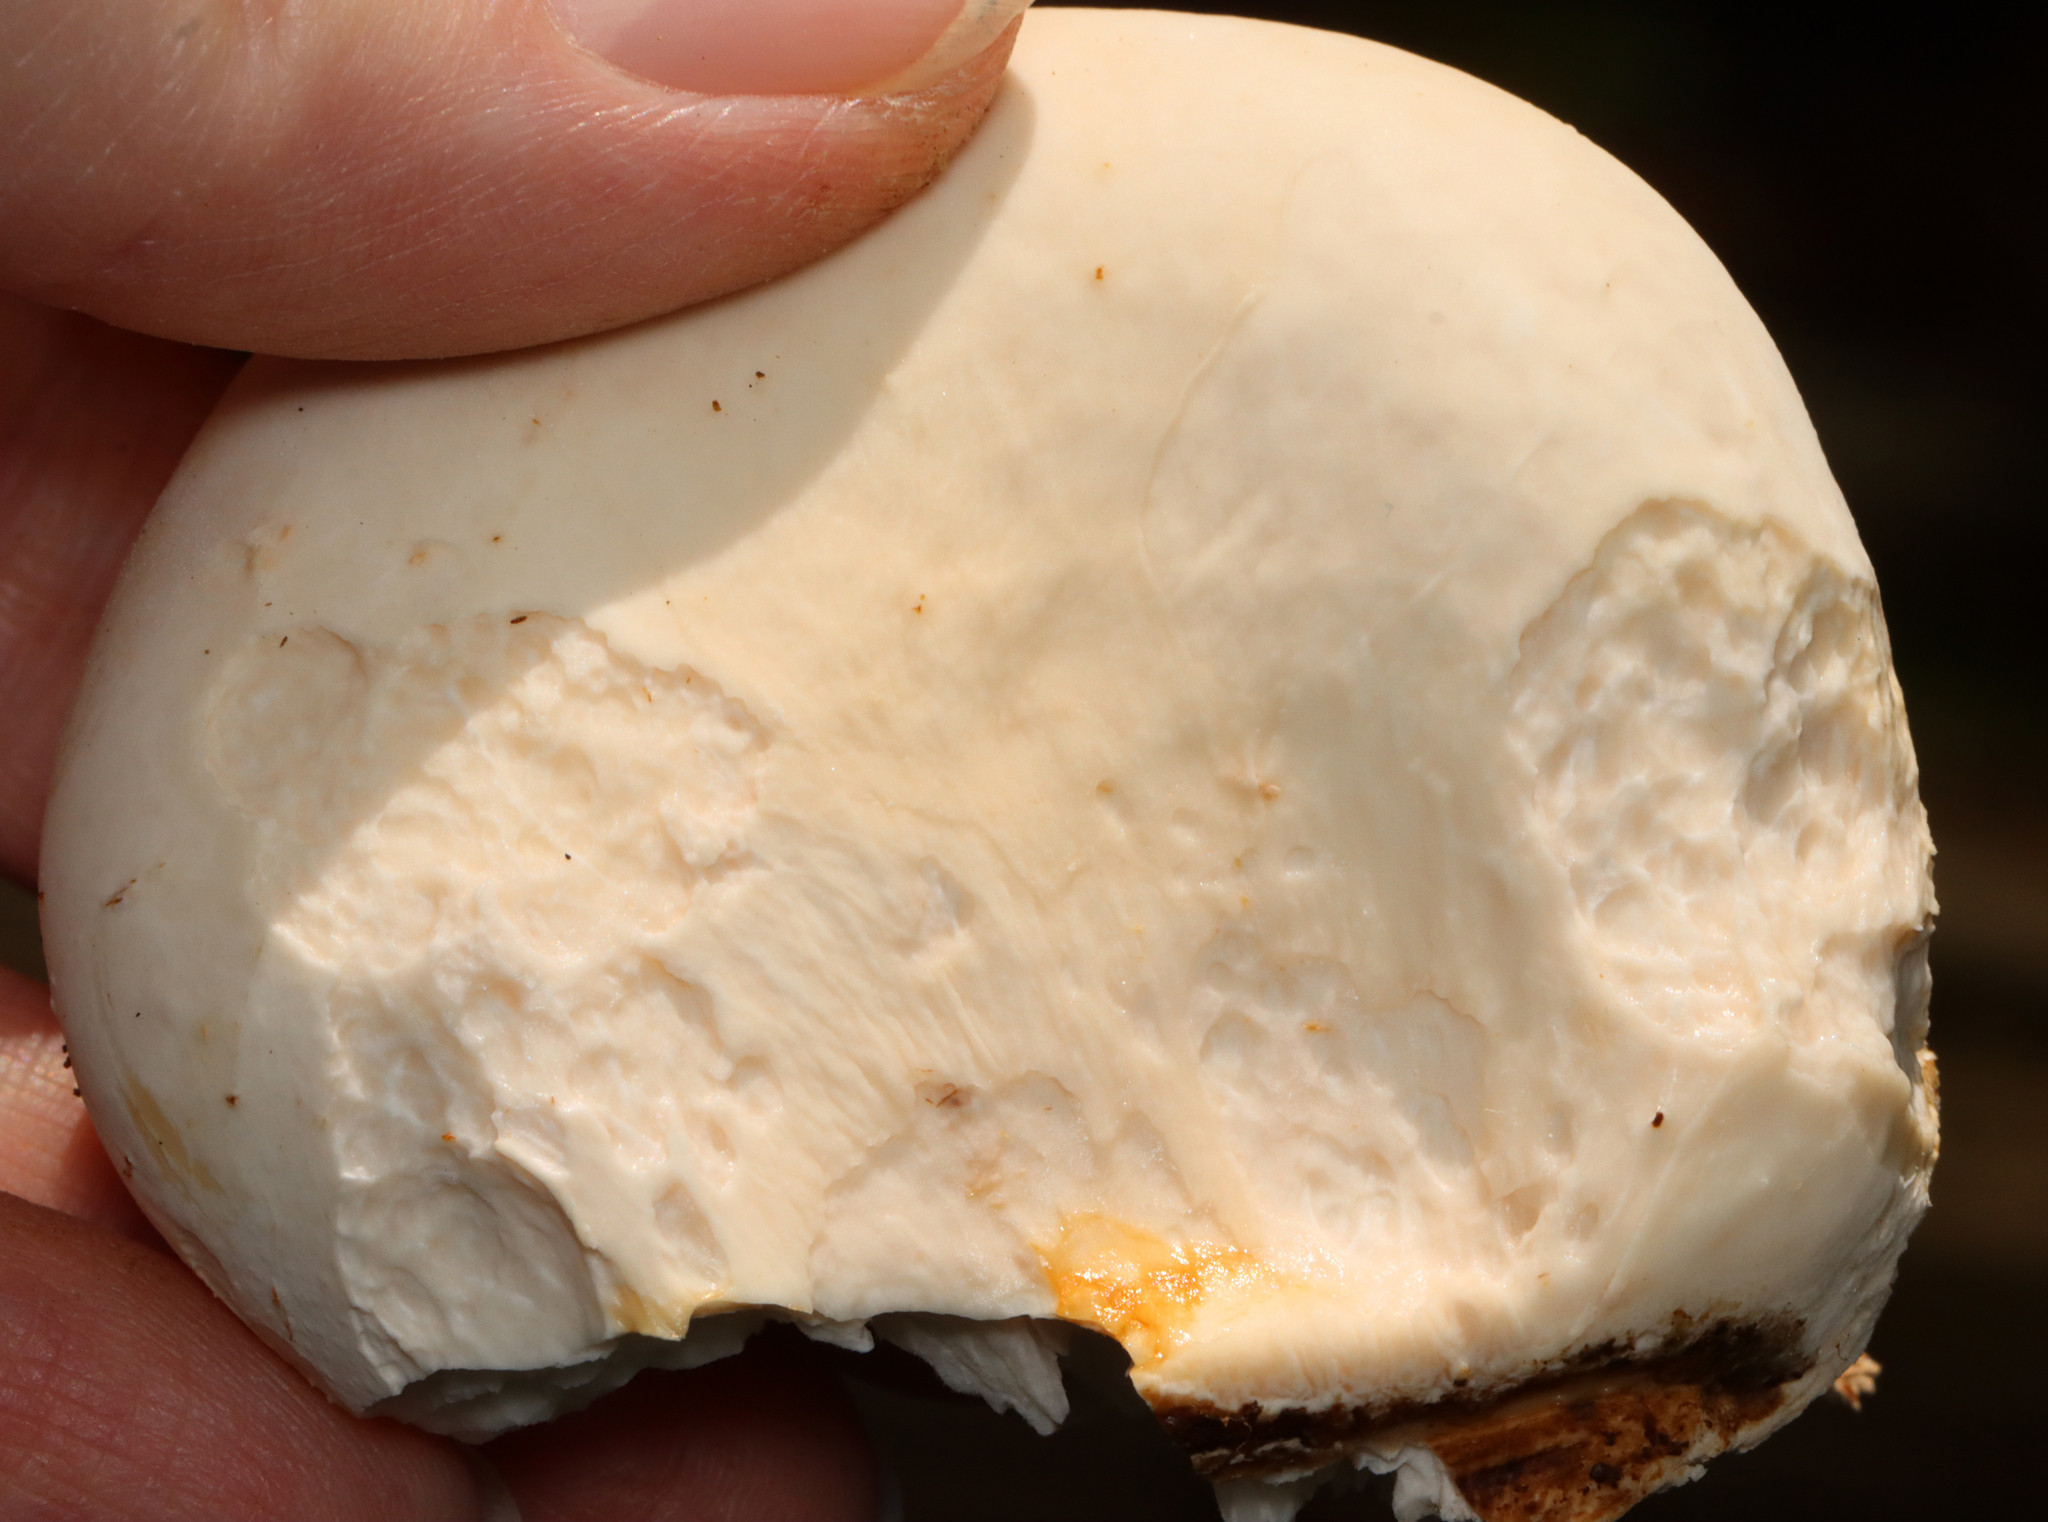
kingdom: Fungi
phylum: Basidiomycota
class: Agaricomycetes
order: Polyporales
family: Fomitopsidaceae
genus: Fomitopsis
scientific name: Fomitopsis betulina
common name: Birch polypore
